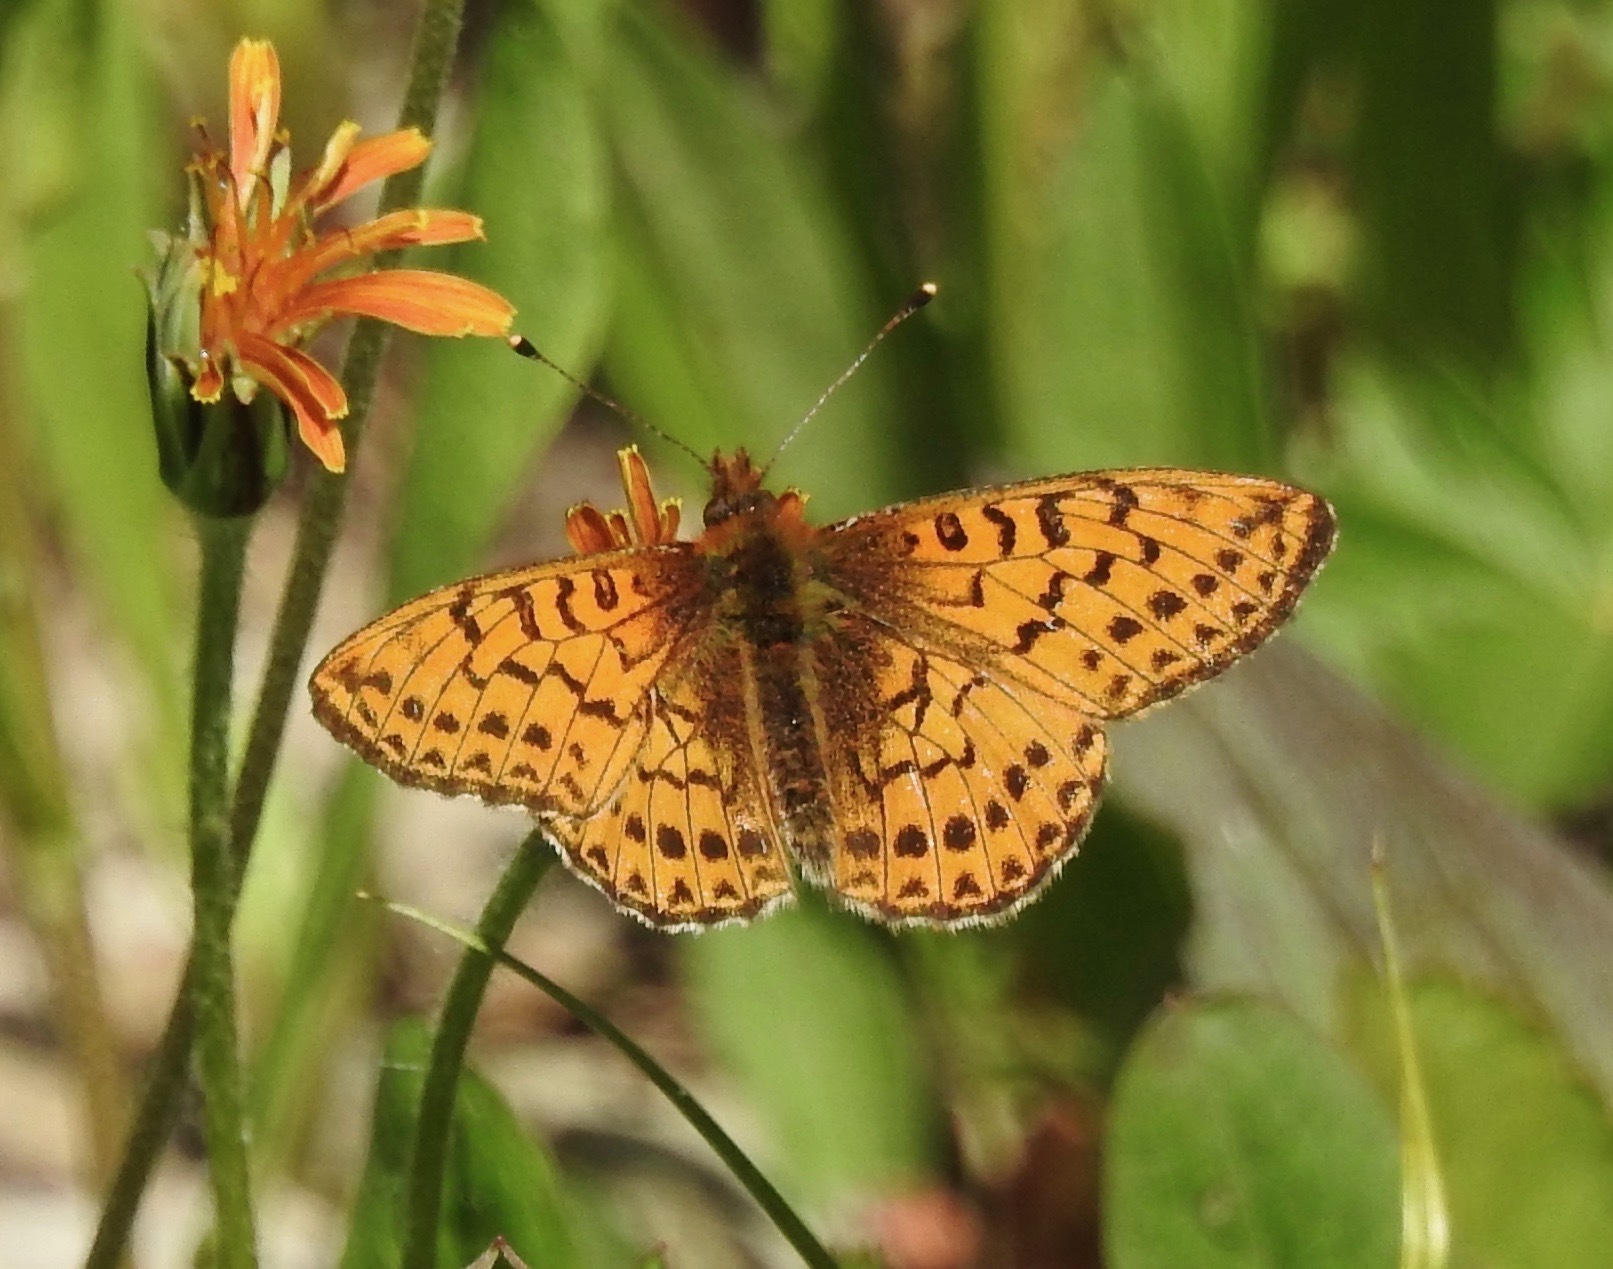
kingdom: Animalia
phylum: Arthropoda
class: Insecta
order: Lepidoptera
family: Nymphalidae
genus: Boloria
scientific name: Boloria chariclea
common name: Arctic fritillary
